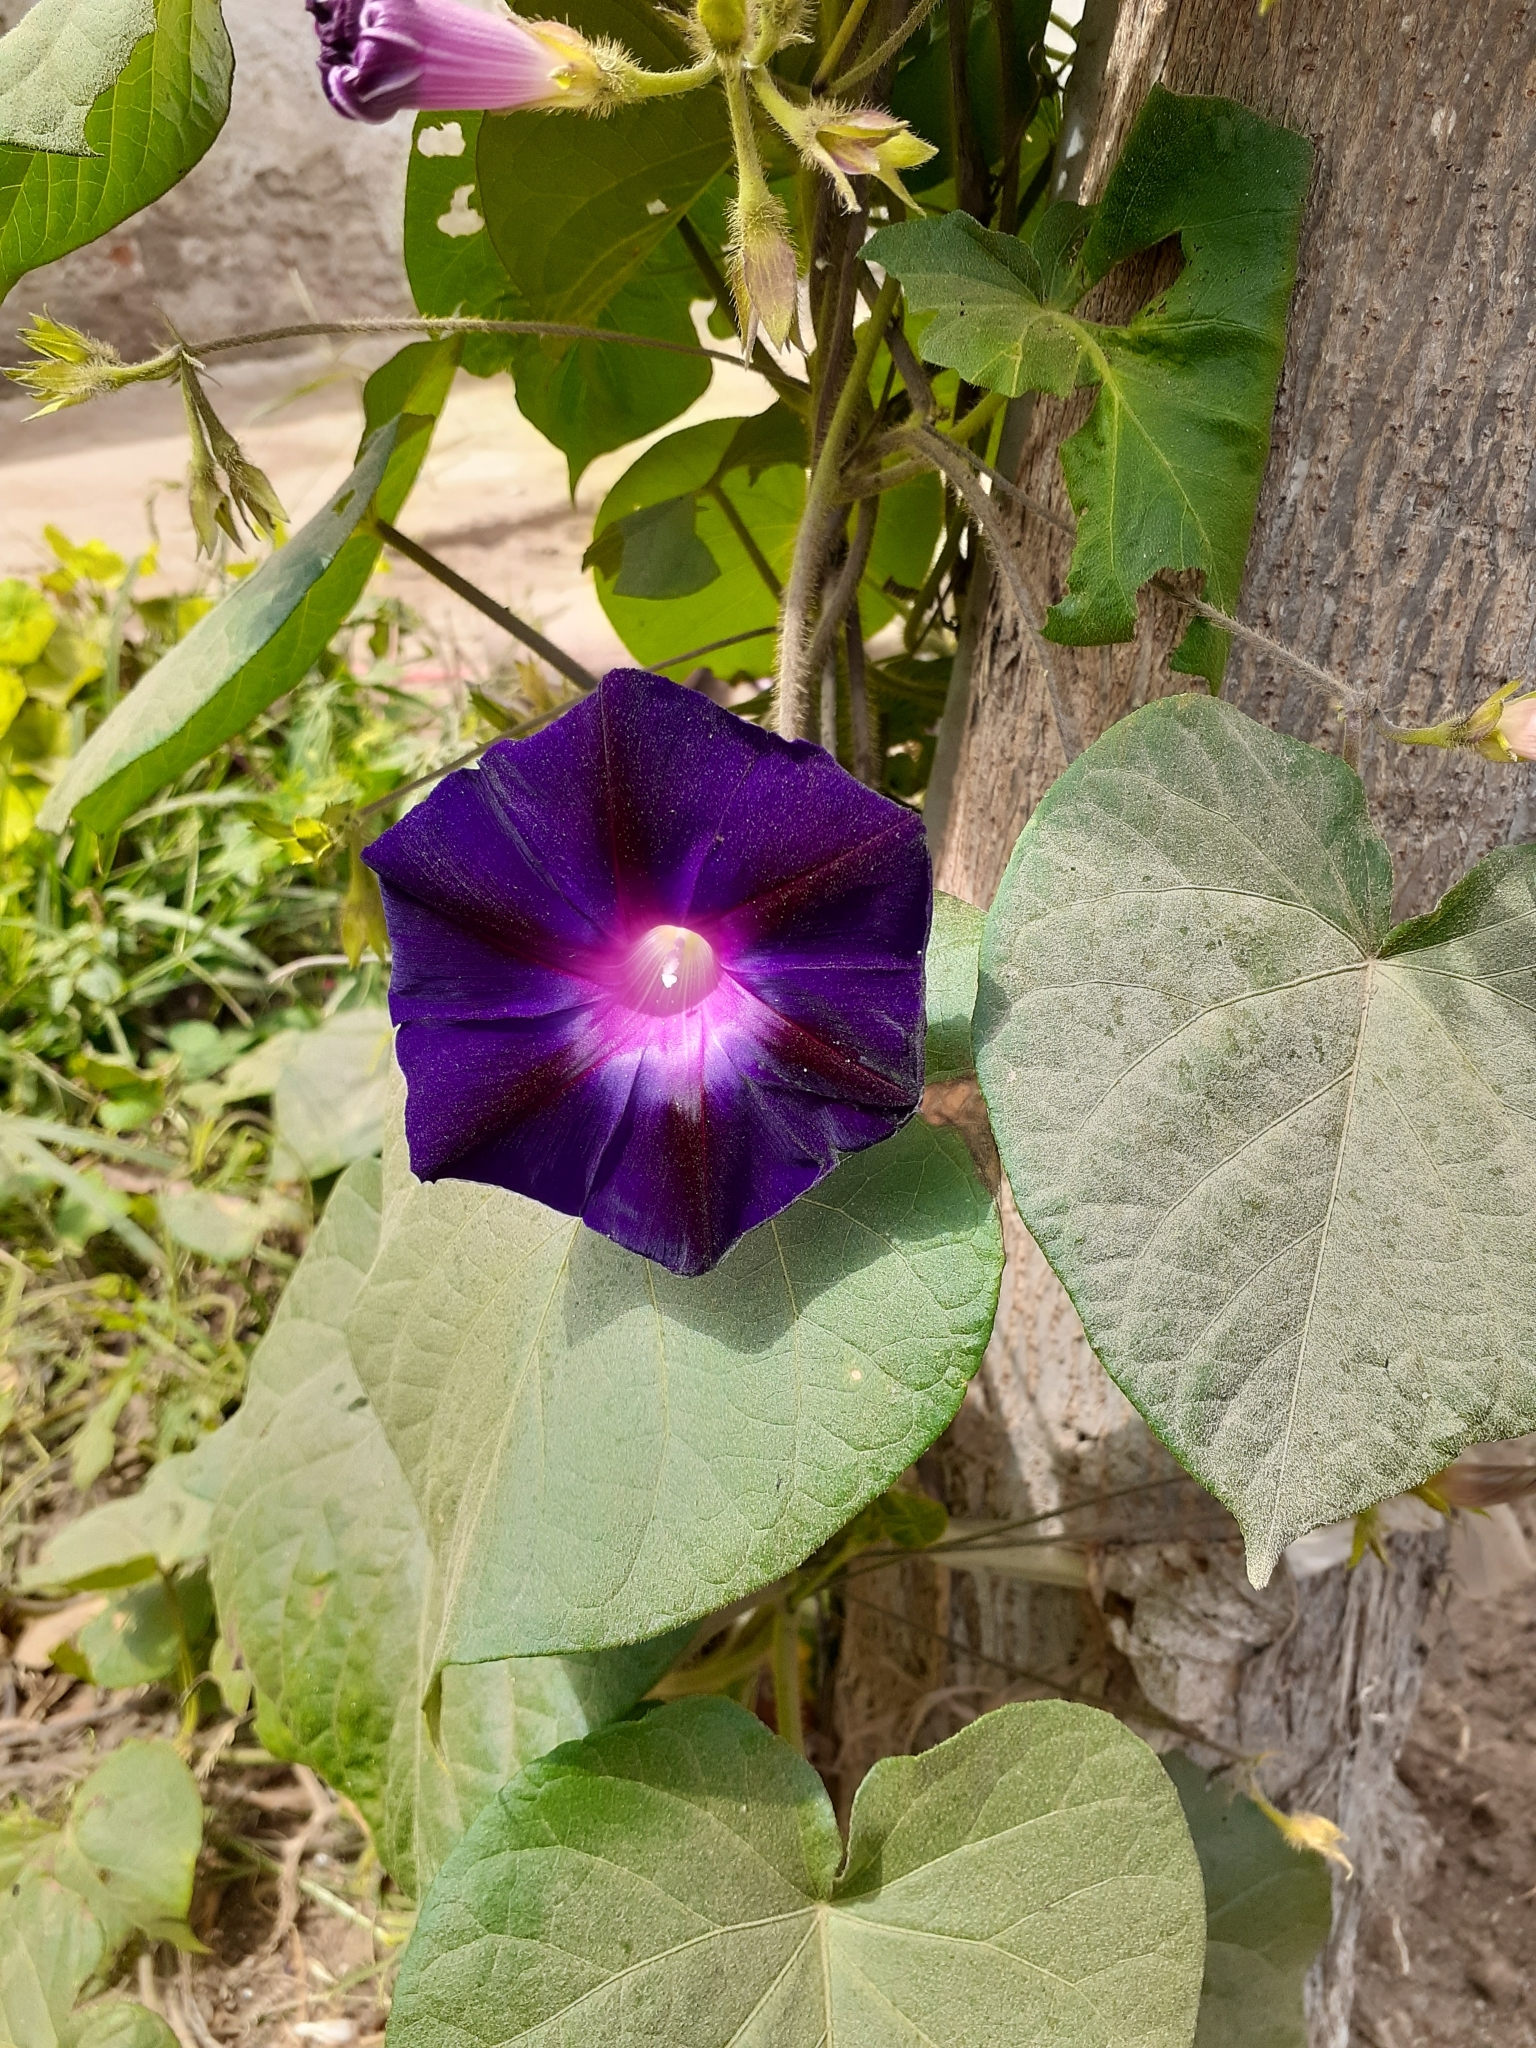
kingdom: Plantae
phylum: Tracheophyta
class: Magnoliopsida
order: Solanales
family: Convolvulaceae
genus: Ipomoea
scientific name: Ipomoea purpurea
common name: Common morning-glory
